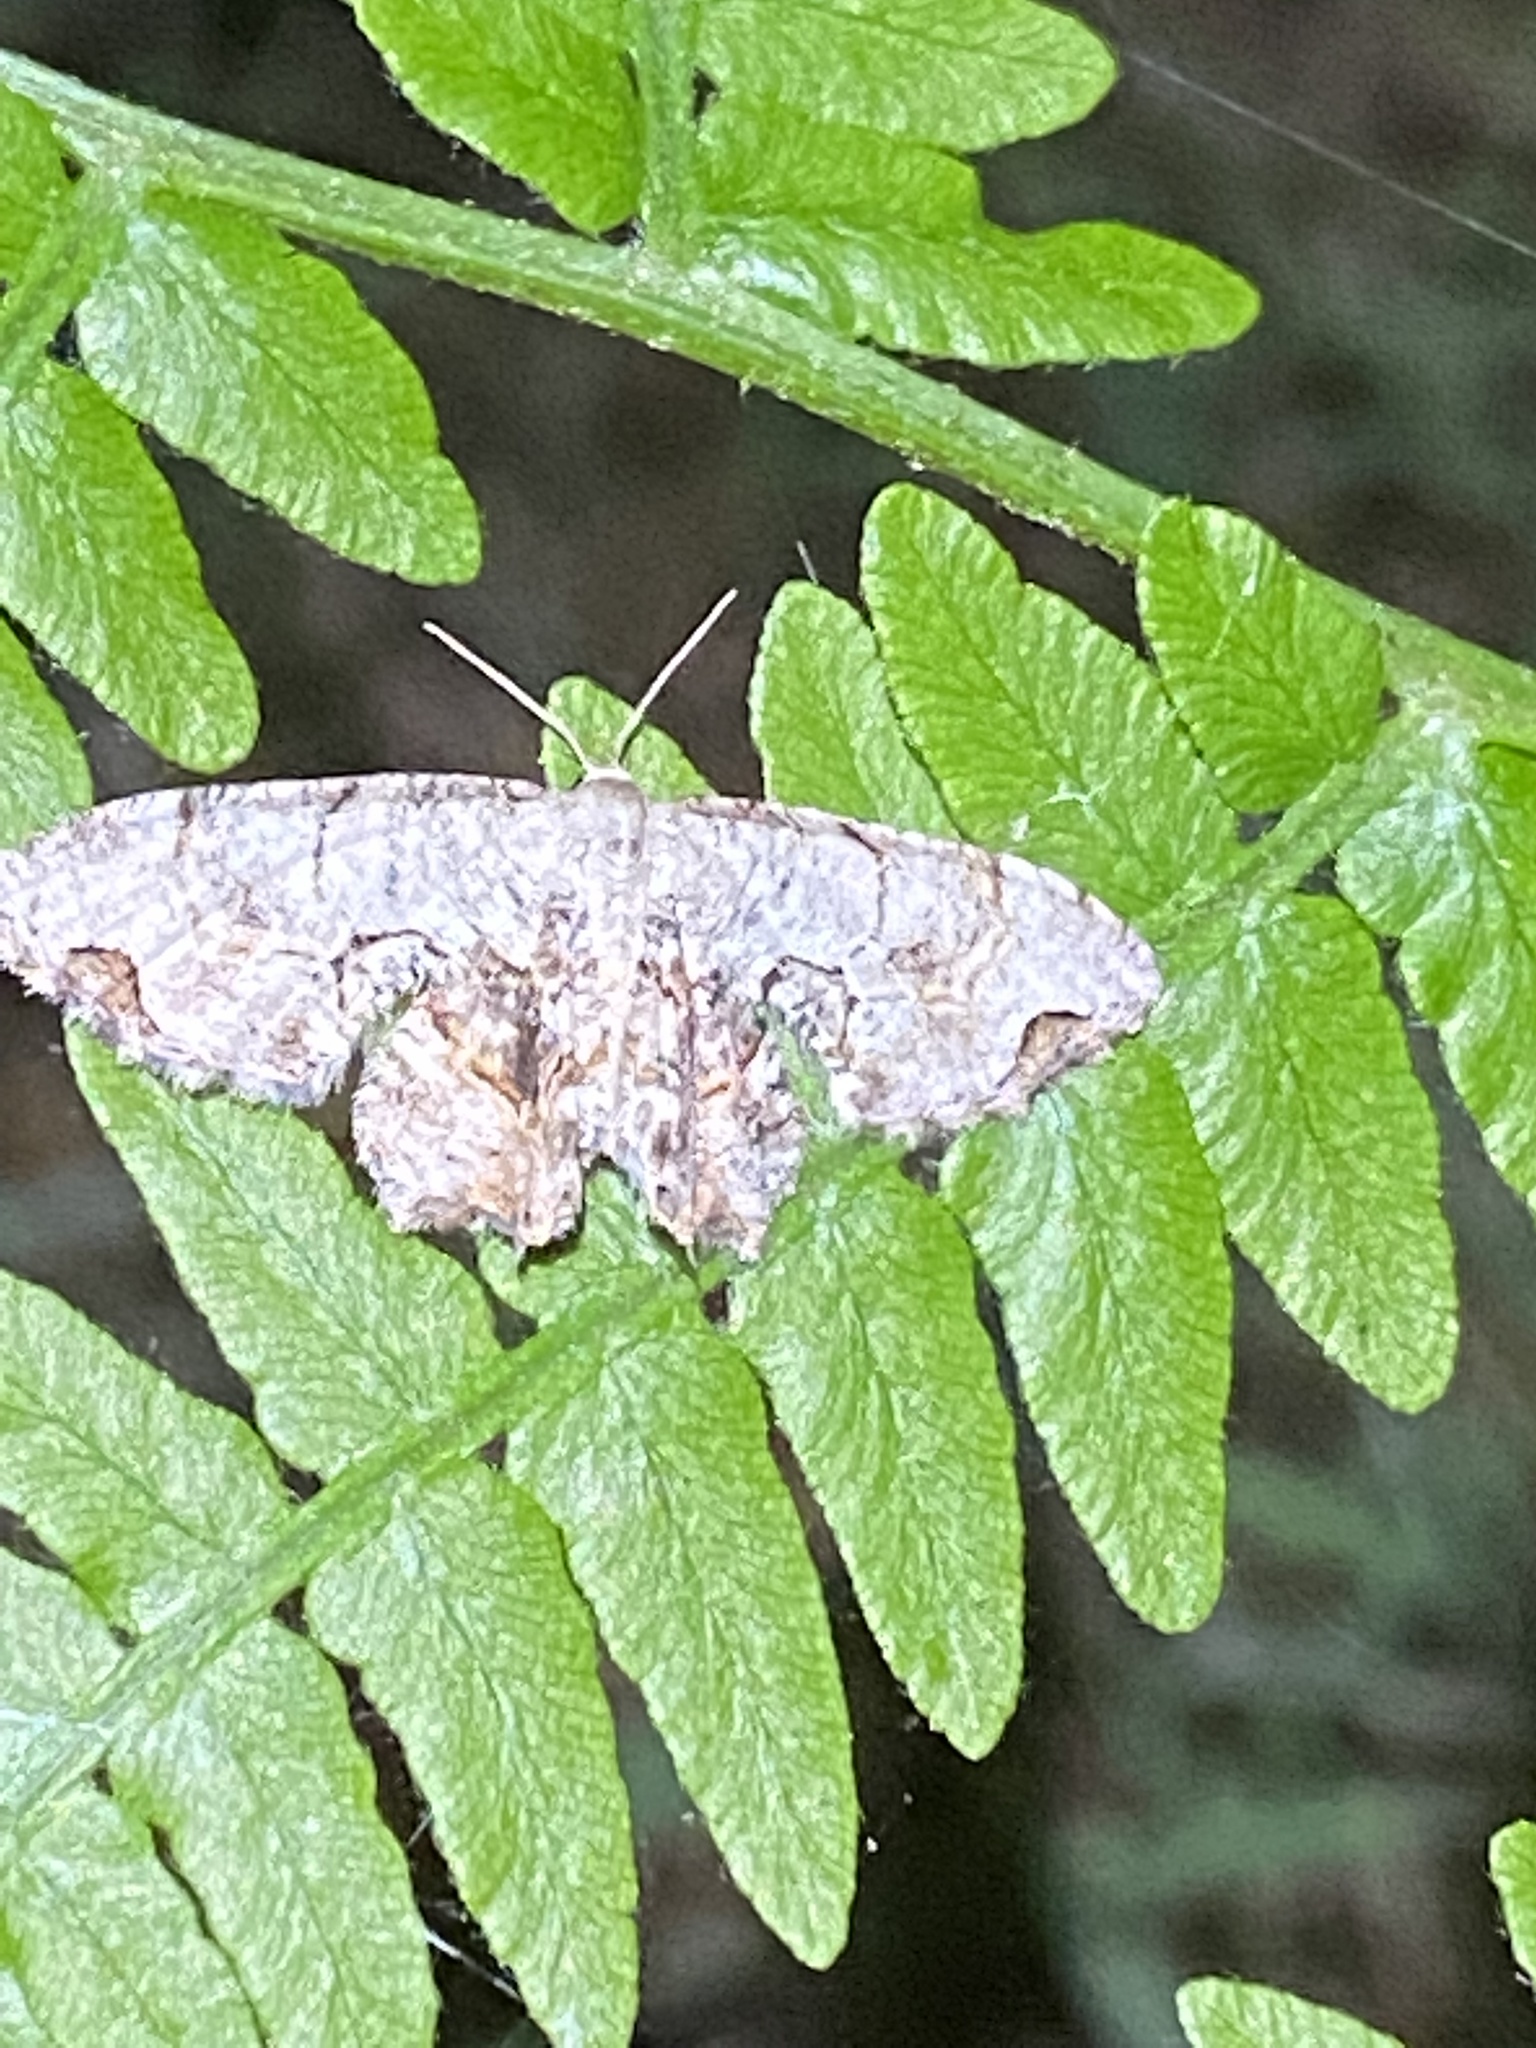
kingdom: Animalia
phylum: Arthropoda
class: Insecta
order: Lepidoptera
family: Uraniidae
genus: Epiplema
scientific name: Epiplema Callizzia amorata
